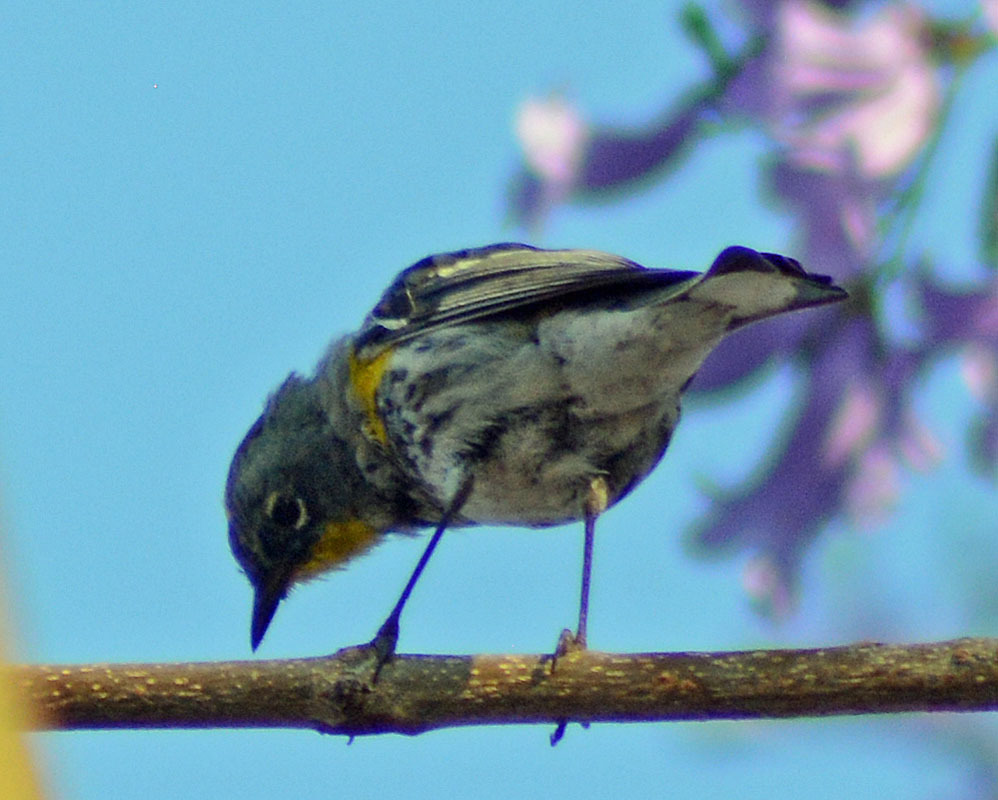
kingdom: Animalia
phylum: Chordata
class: Aves
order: Passeriformes
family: Parulidae
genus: Setophaga
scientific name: Setophaga auduboni
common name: Audubon's warbler
